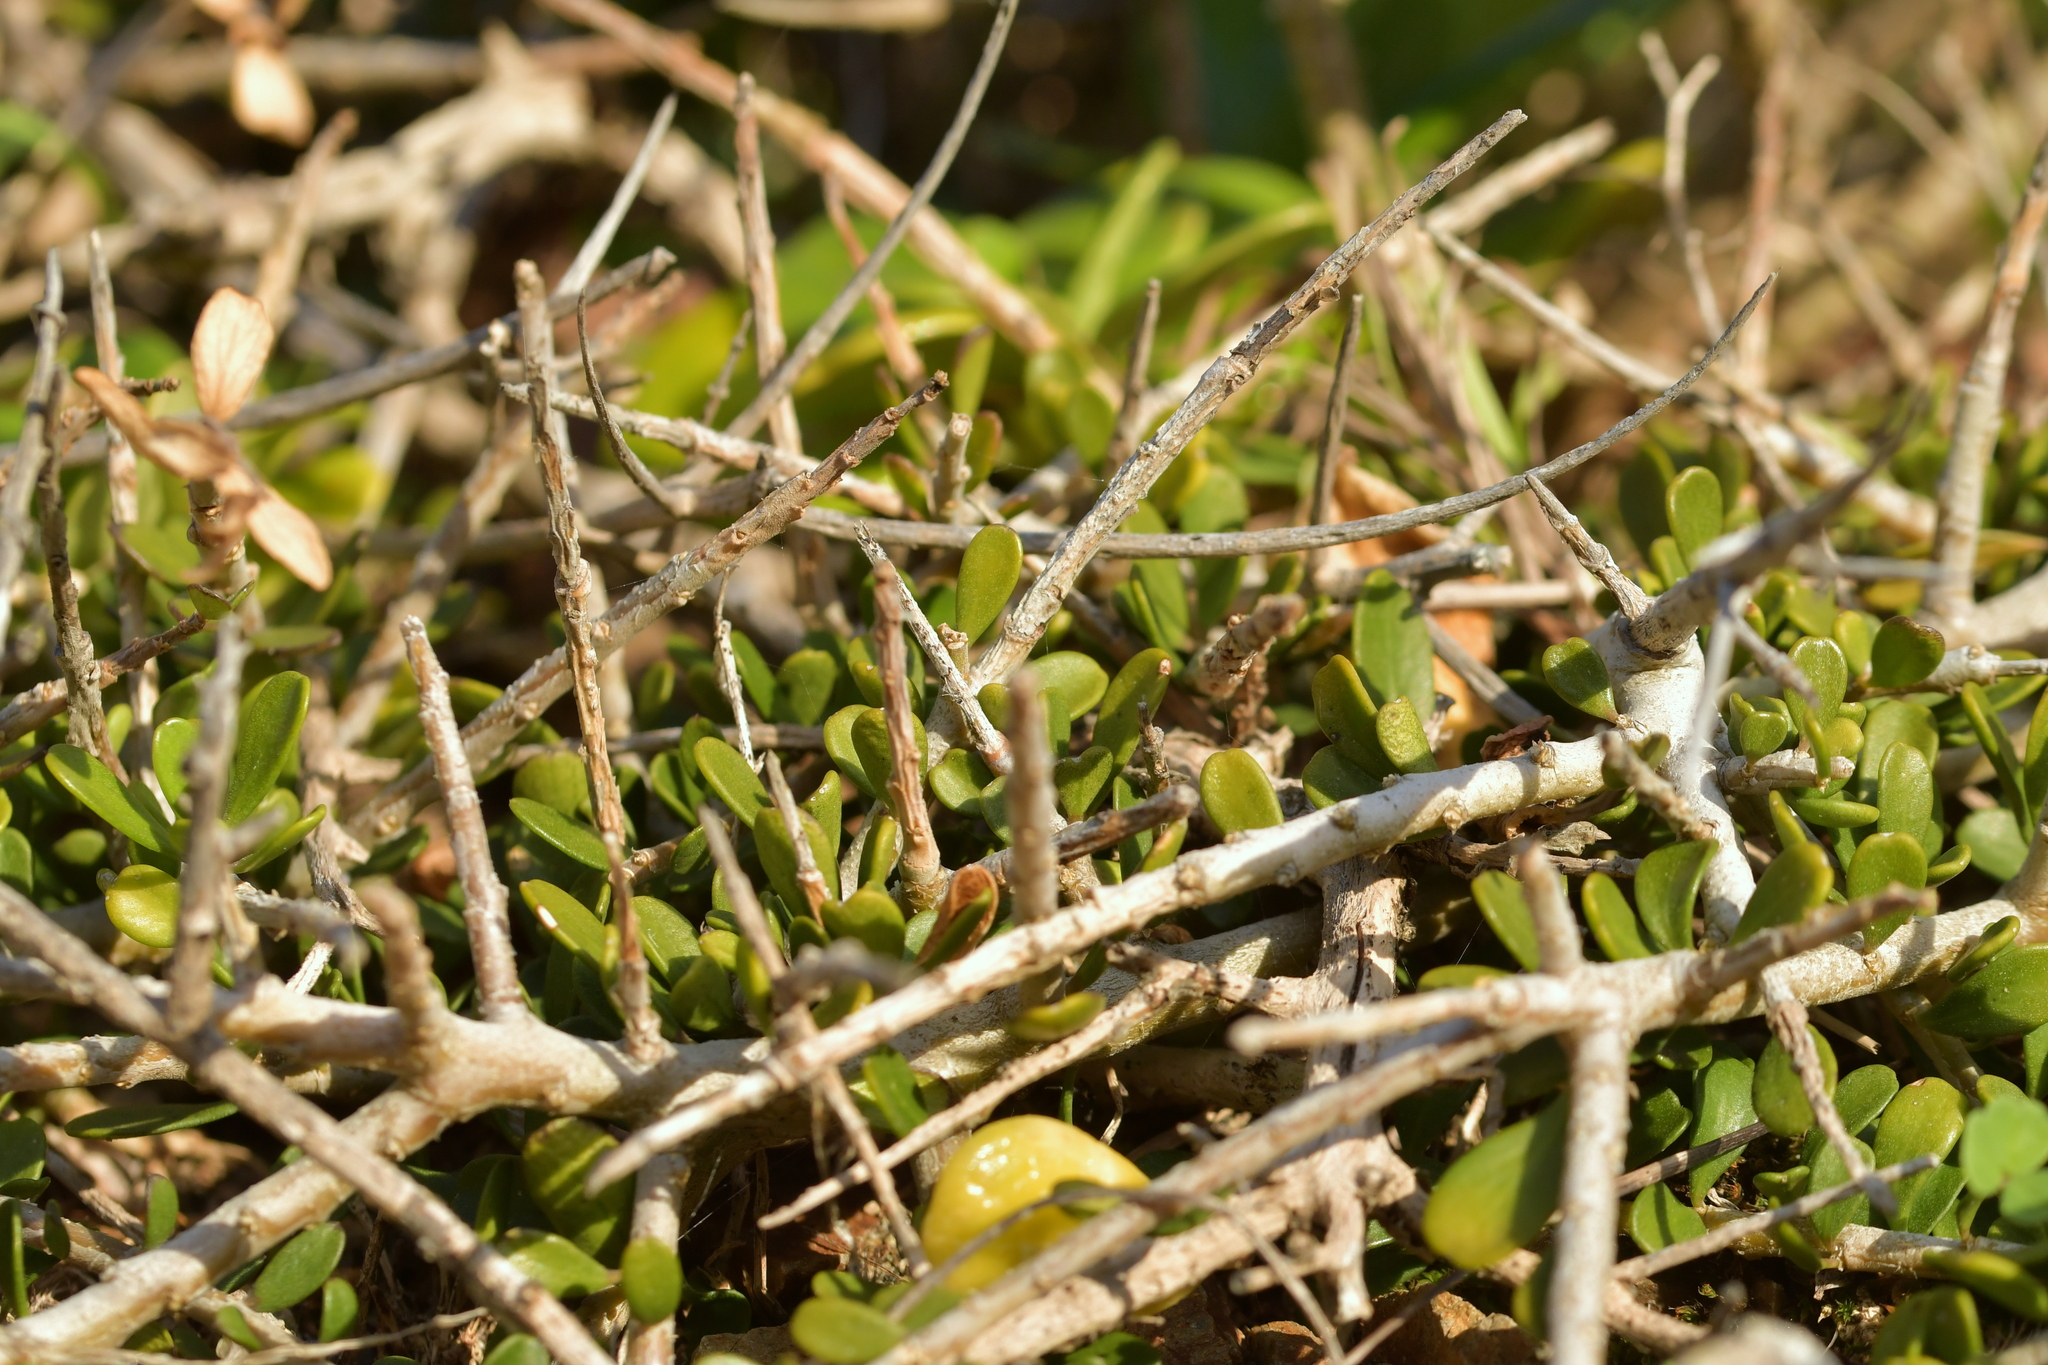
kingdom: Plantae
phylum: Tracheophyta
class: Magnoliopsida
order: Malpighiales
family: Violaceae
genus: Melicytus
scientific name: Melicytus crassifolius
